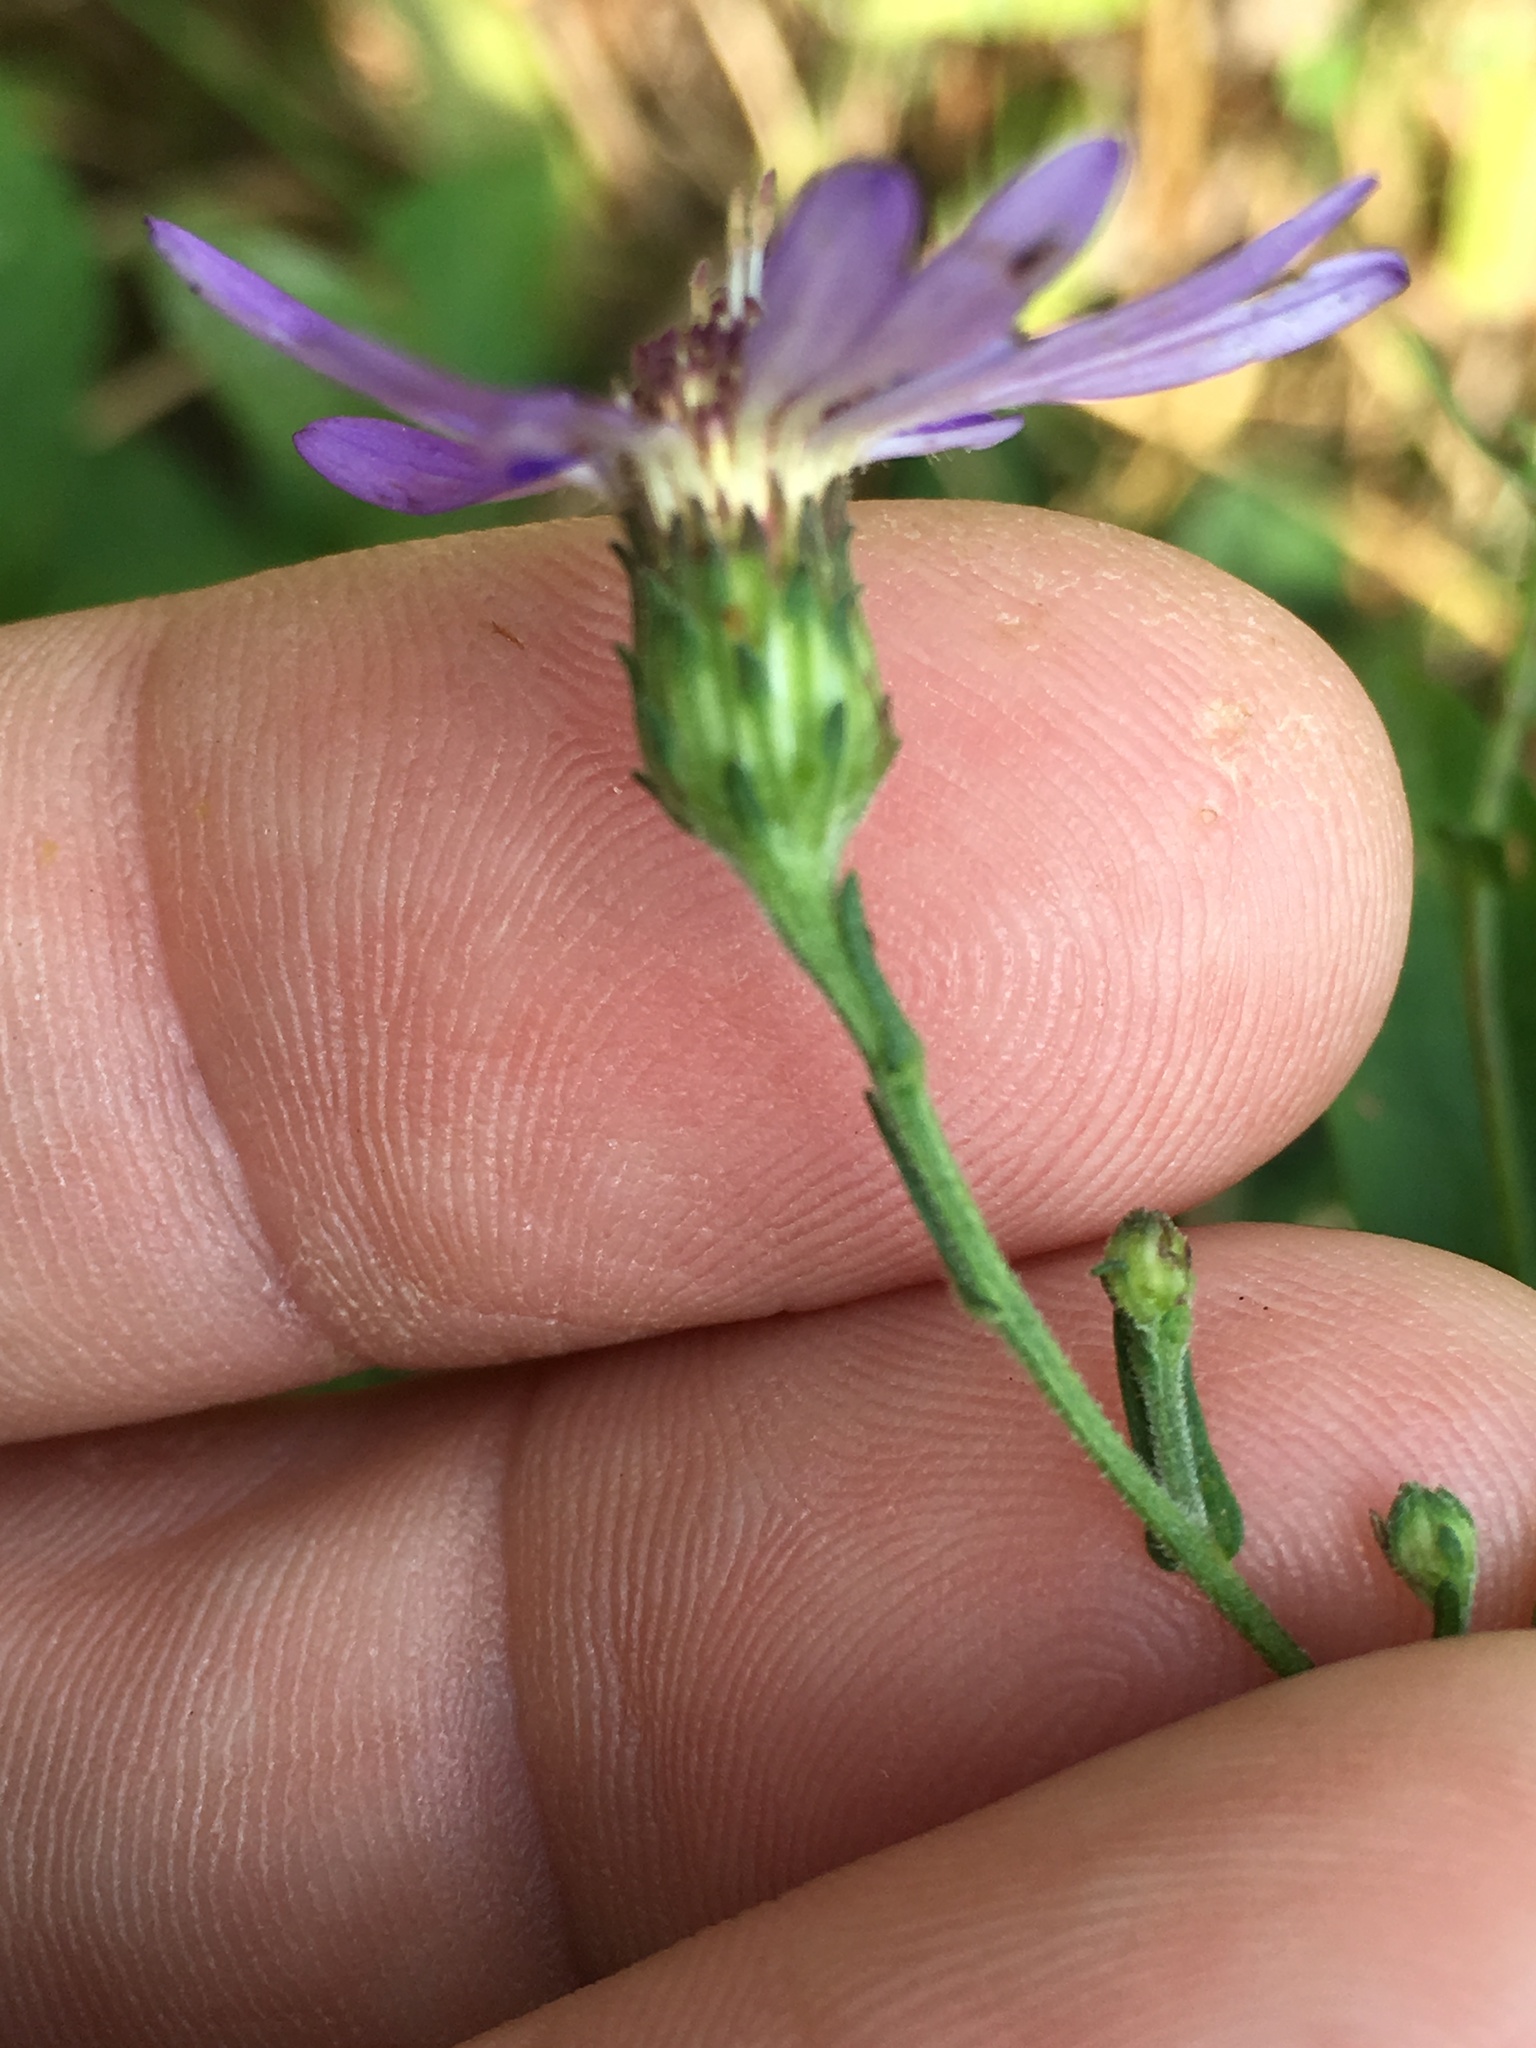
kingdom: Plantae
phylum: Tracheophyta
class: Magnoliopsida
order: Asterales
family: Asteraceae
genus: Symphyotrichum
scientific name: Symphyotrichum patens
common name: Late purple aster
